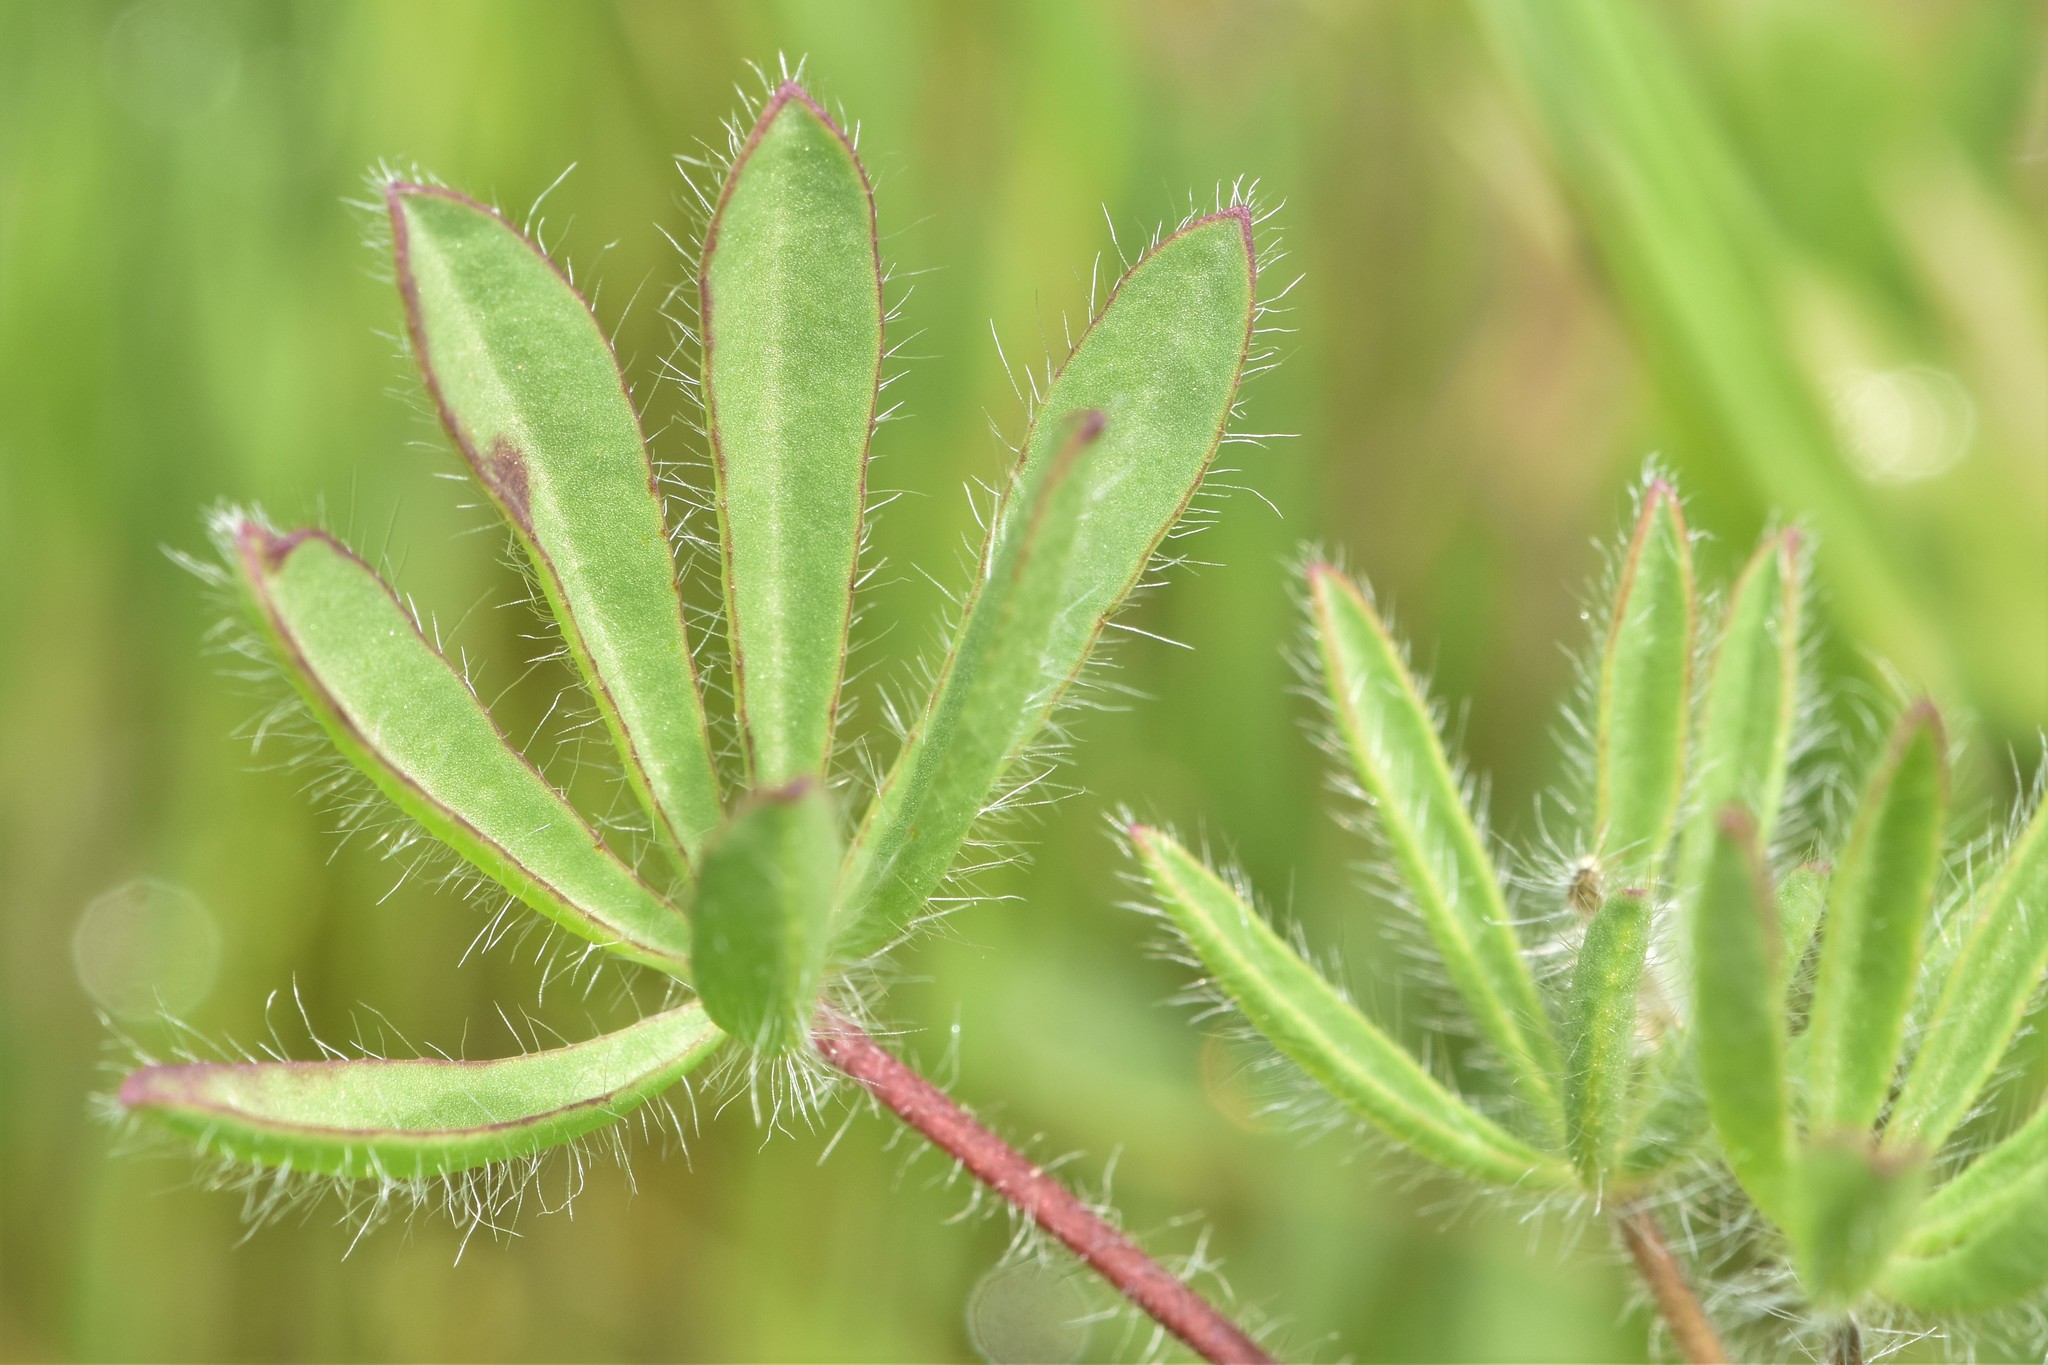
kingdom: Plantae
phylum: Tracheophyta
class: Magnoliopsida
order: Fabales
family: Fabaceae
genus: Lupinus
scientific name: Lupinus bicolor
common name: Miniature lupine
